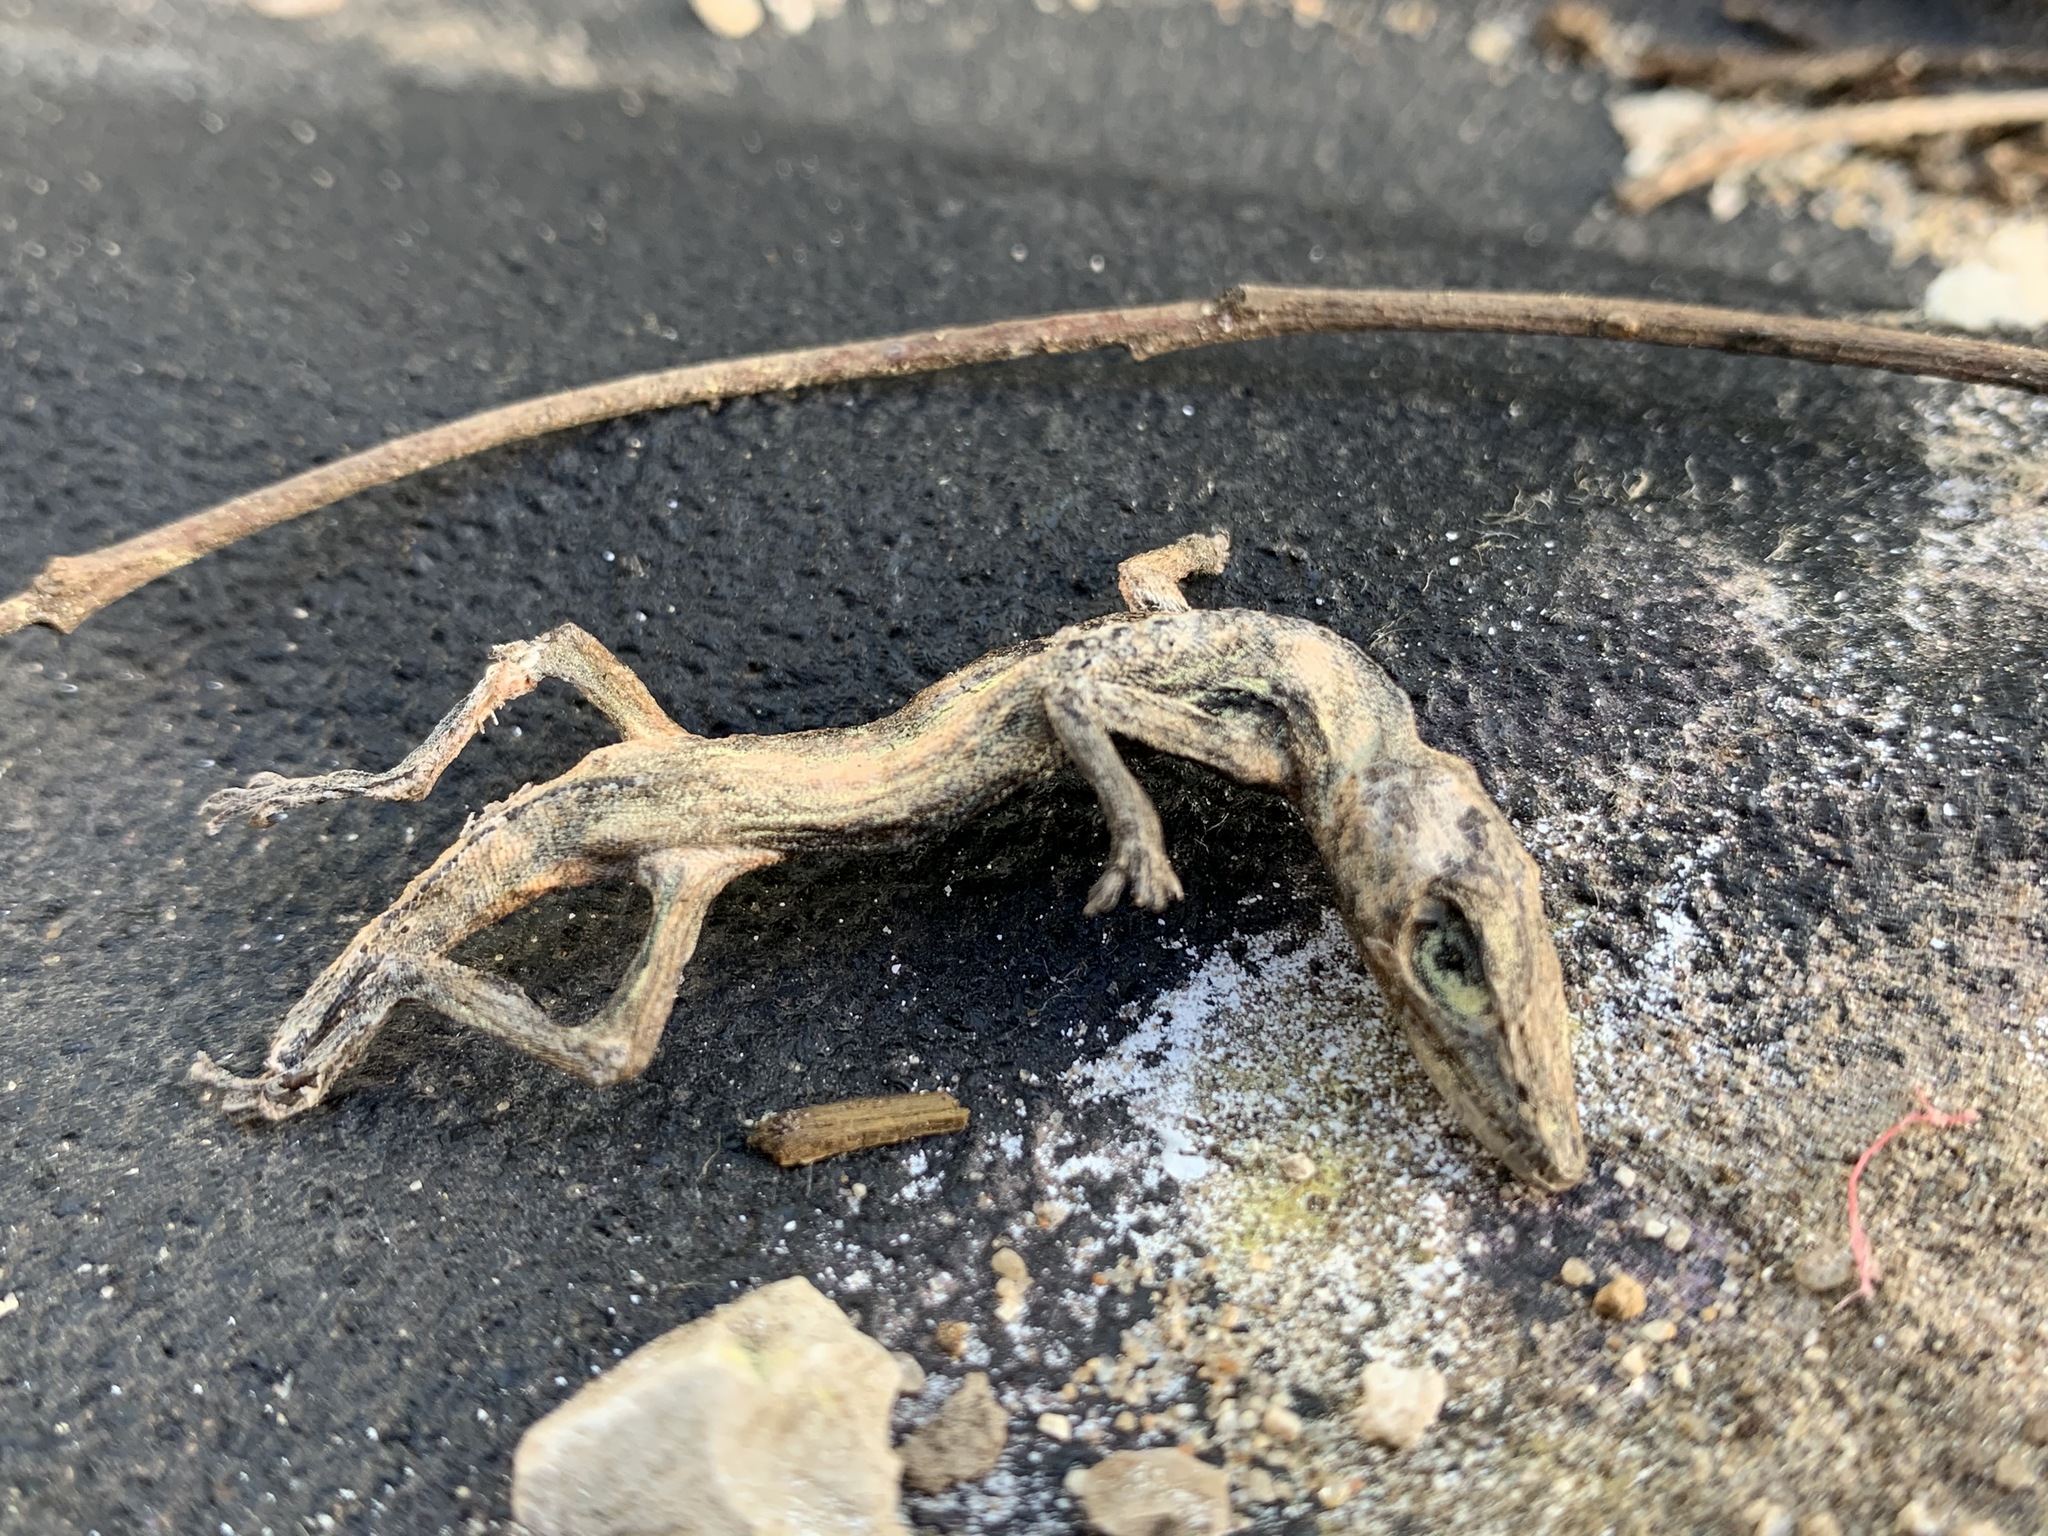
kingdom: Animalia
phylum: Chordata
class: Squamata
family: Dactyloidae
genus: Anolis
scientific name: Anolis carolinensis
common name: Green anole
